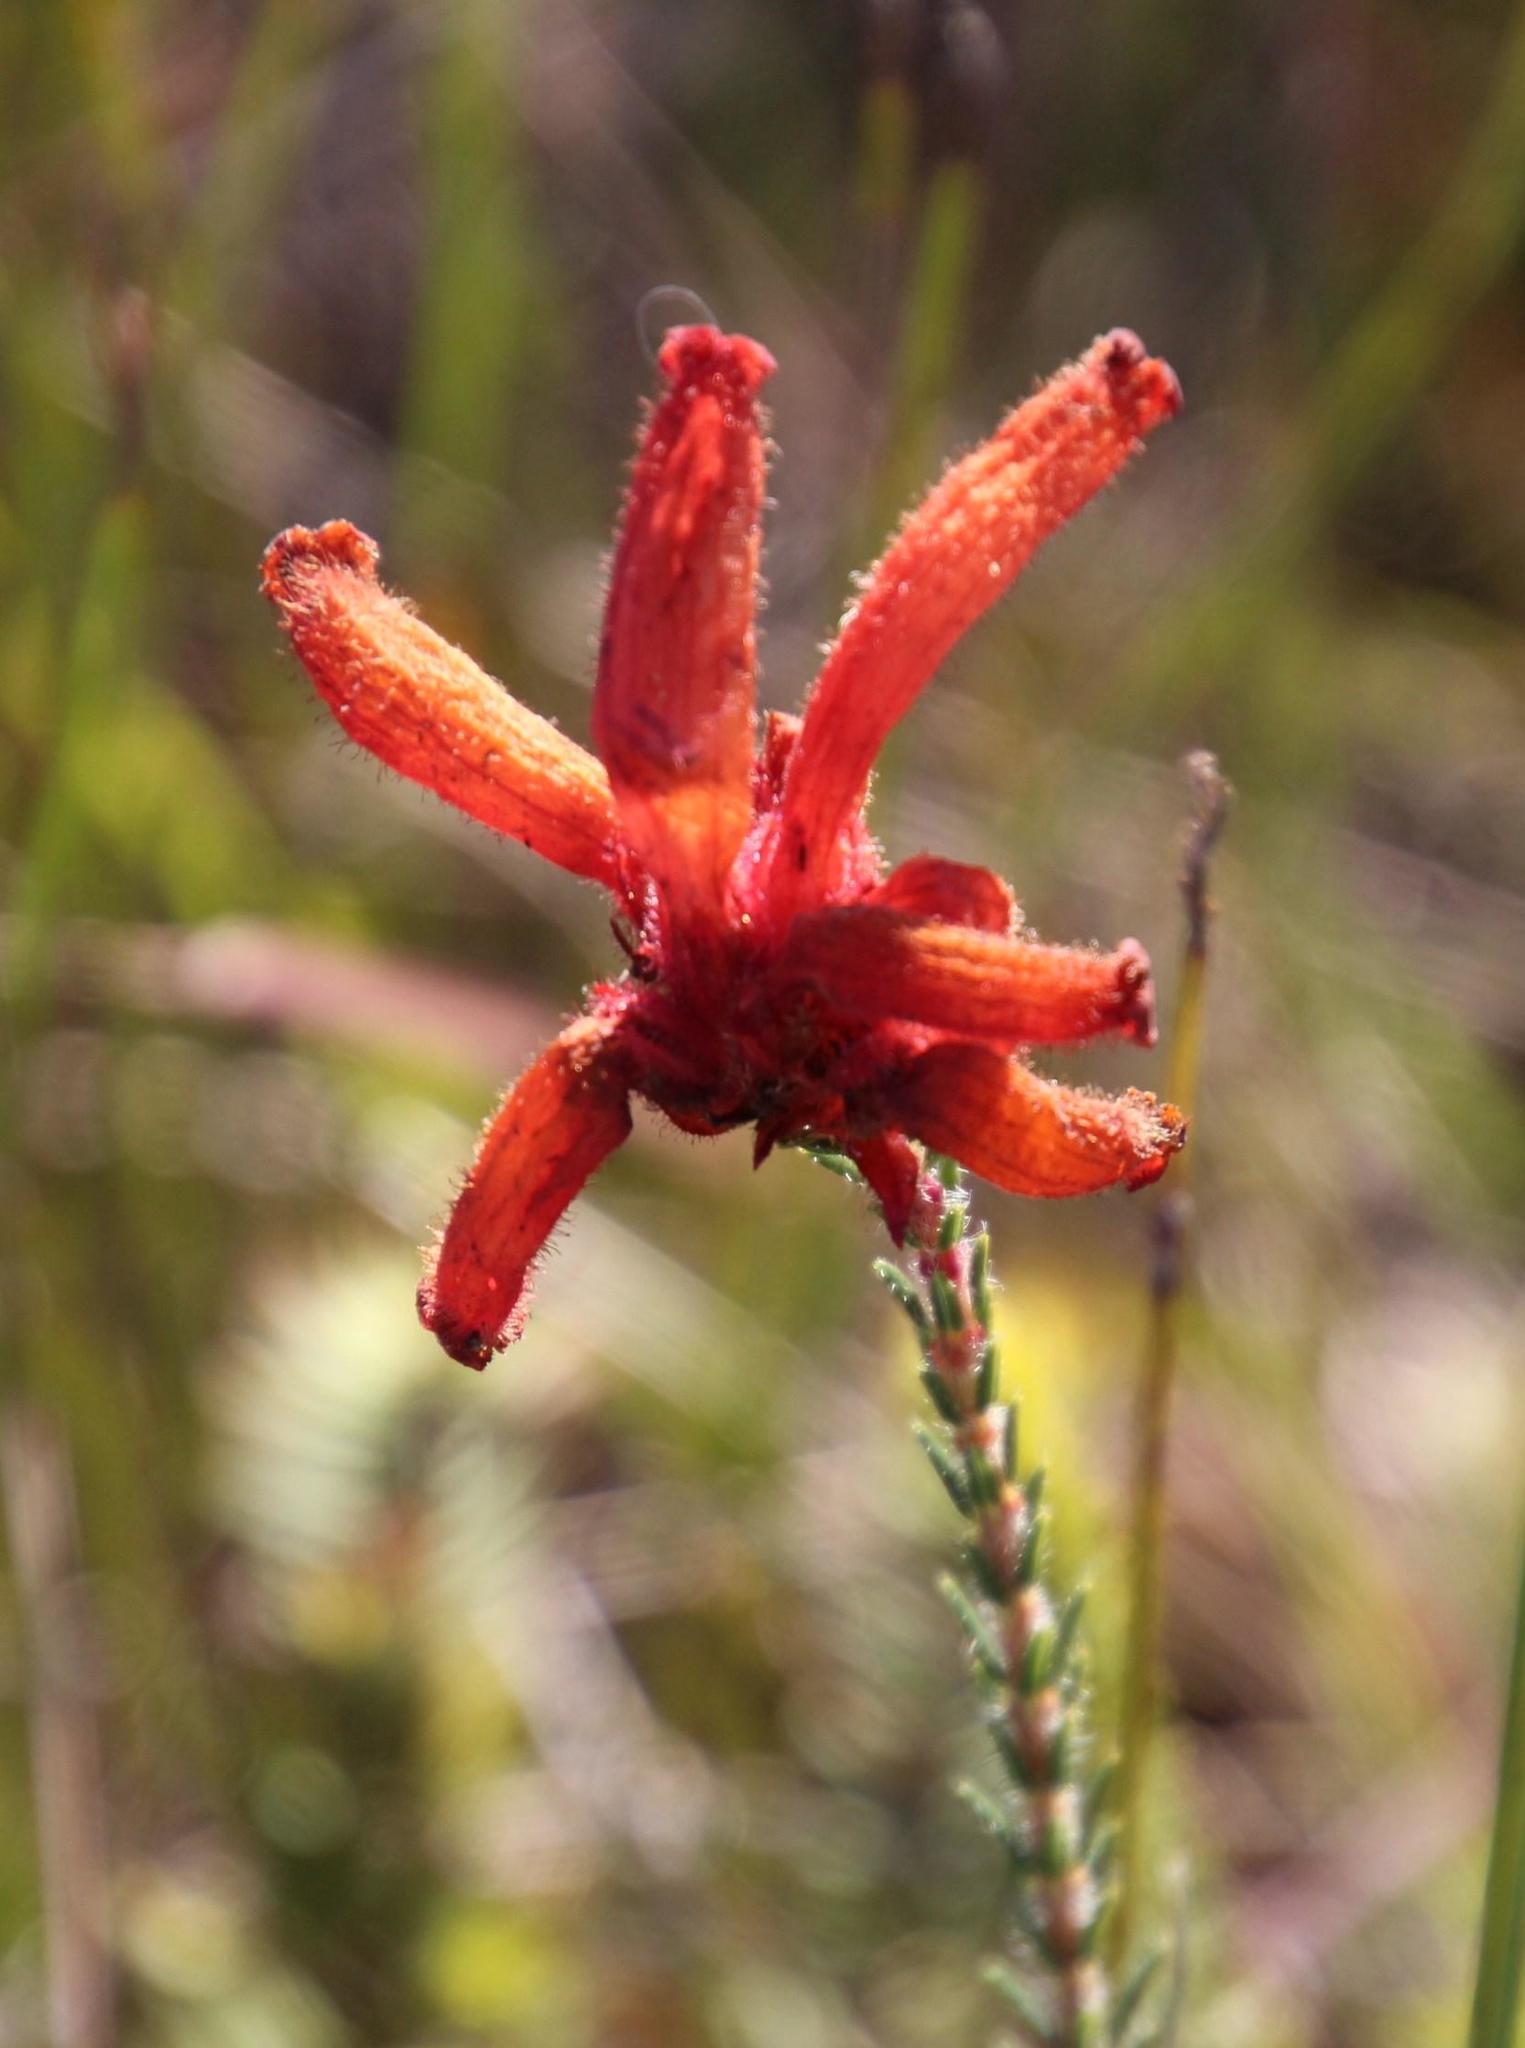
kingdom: Plantae
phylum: Tracheophyta
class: Magnoliopsida
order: Ericales
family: Ericaceae
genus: Erica
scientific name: Erica cerinthoides
